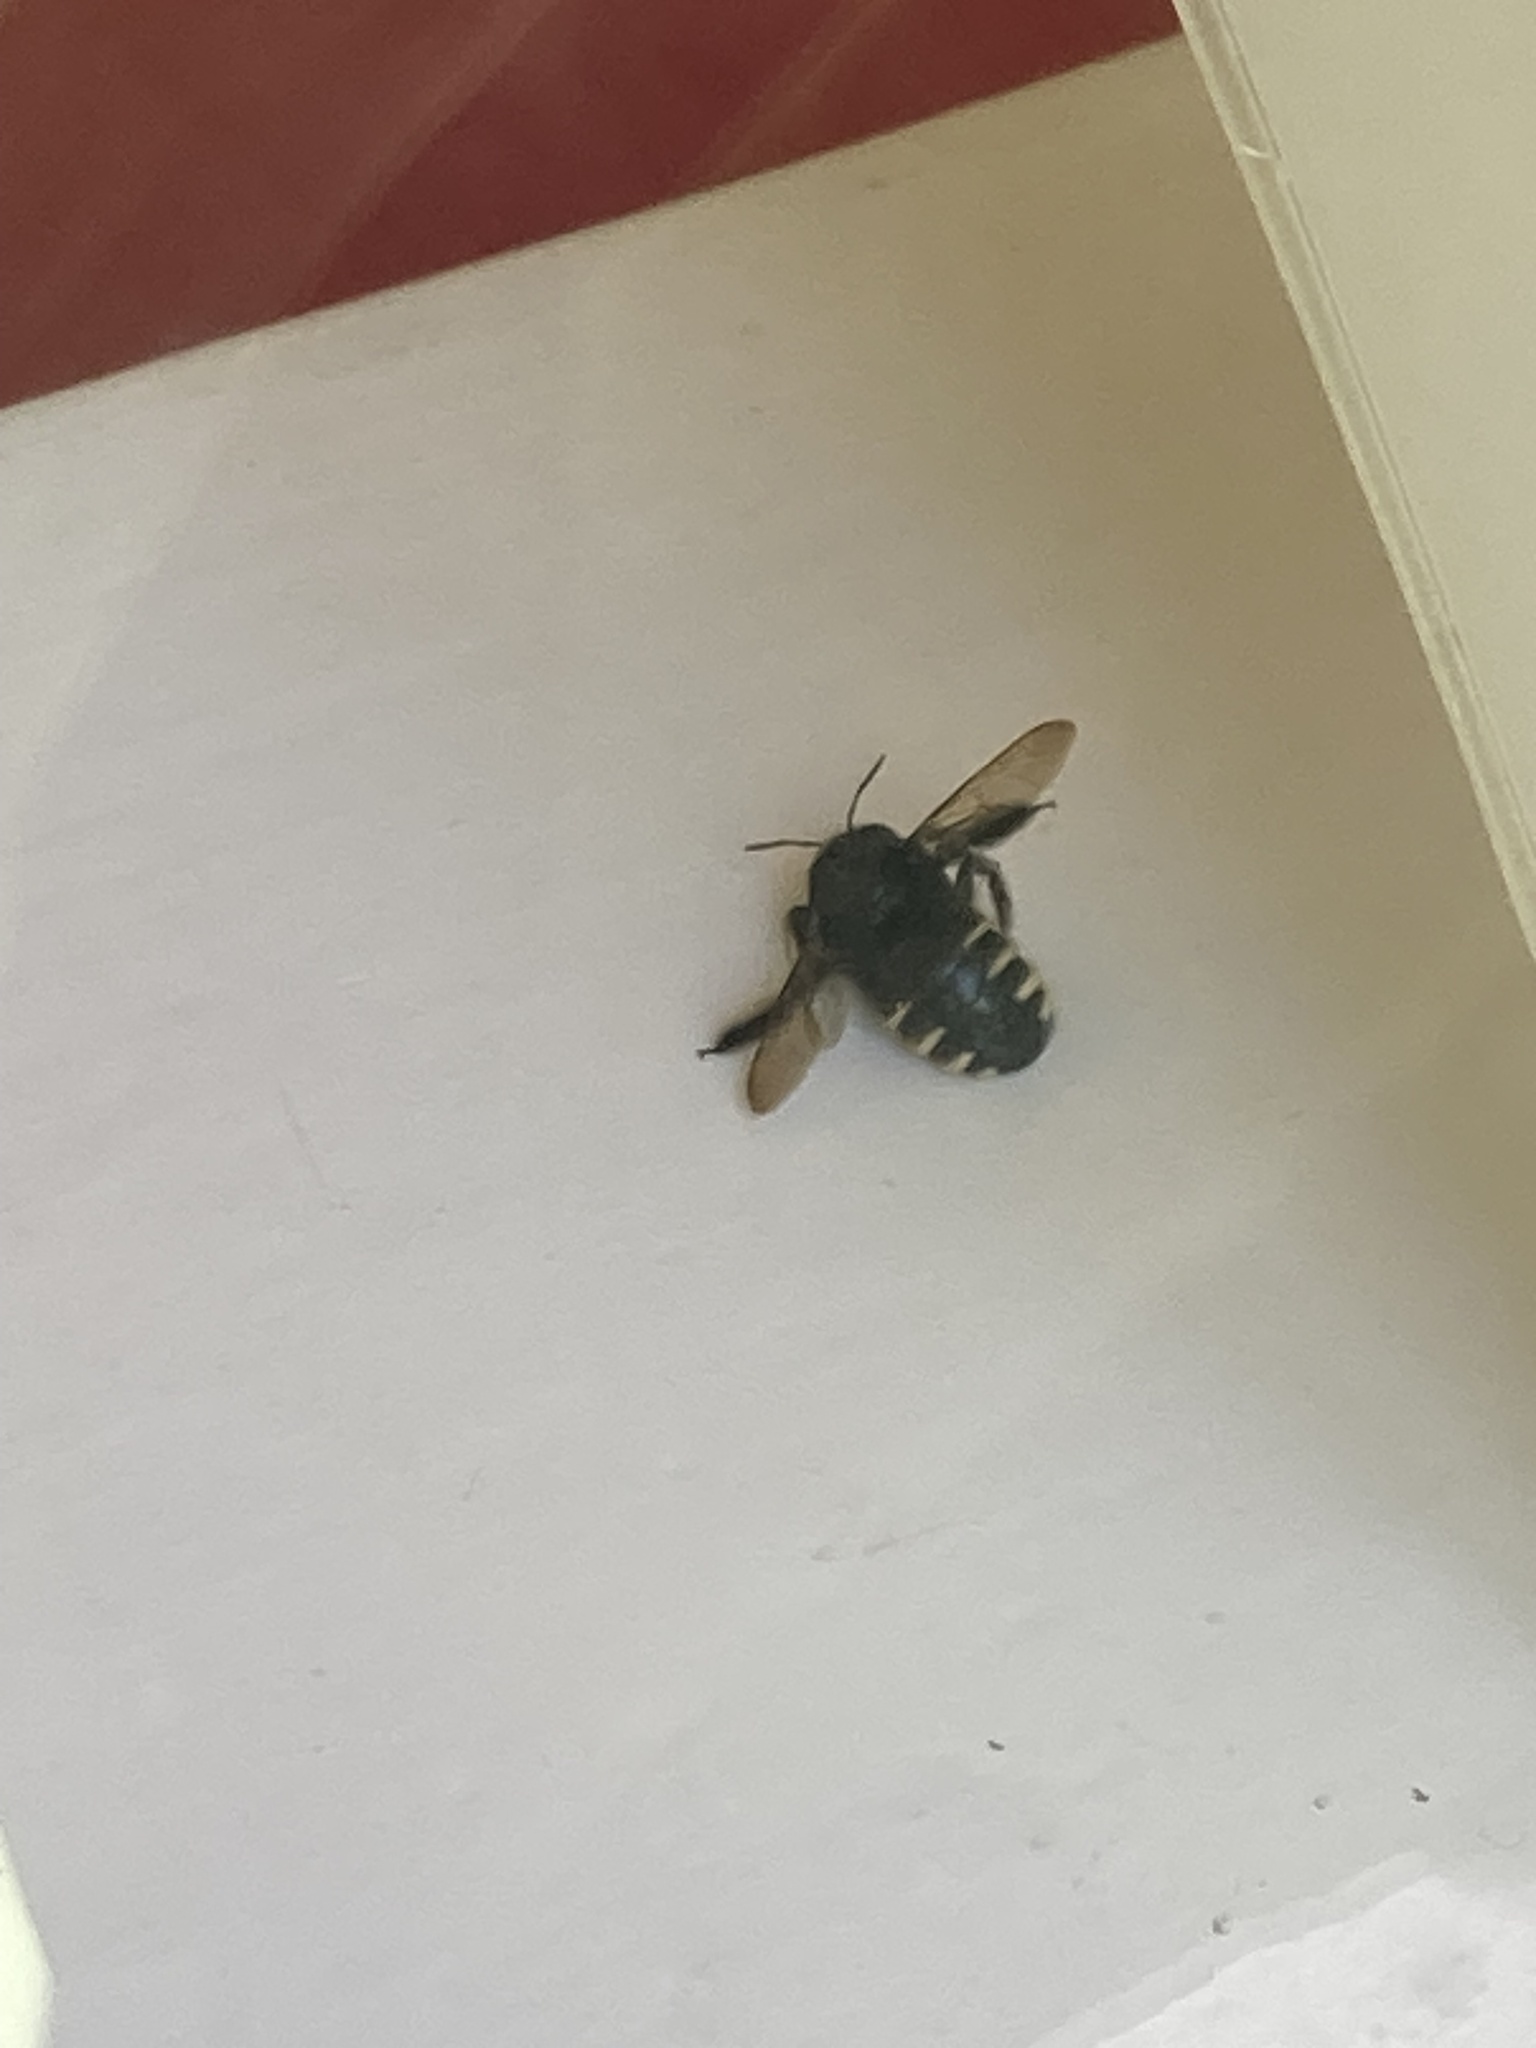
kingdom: Animalia
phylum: Arthropoda
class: Insecta
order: Hymenoptera
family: Apidae
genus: Xylocopa
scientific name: Xylocopa tabaniformis
